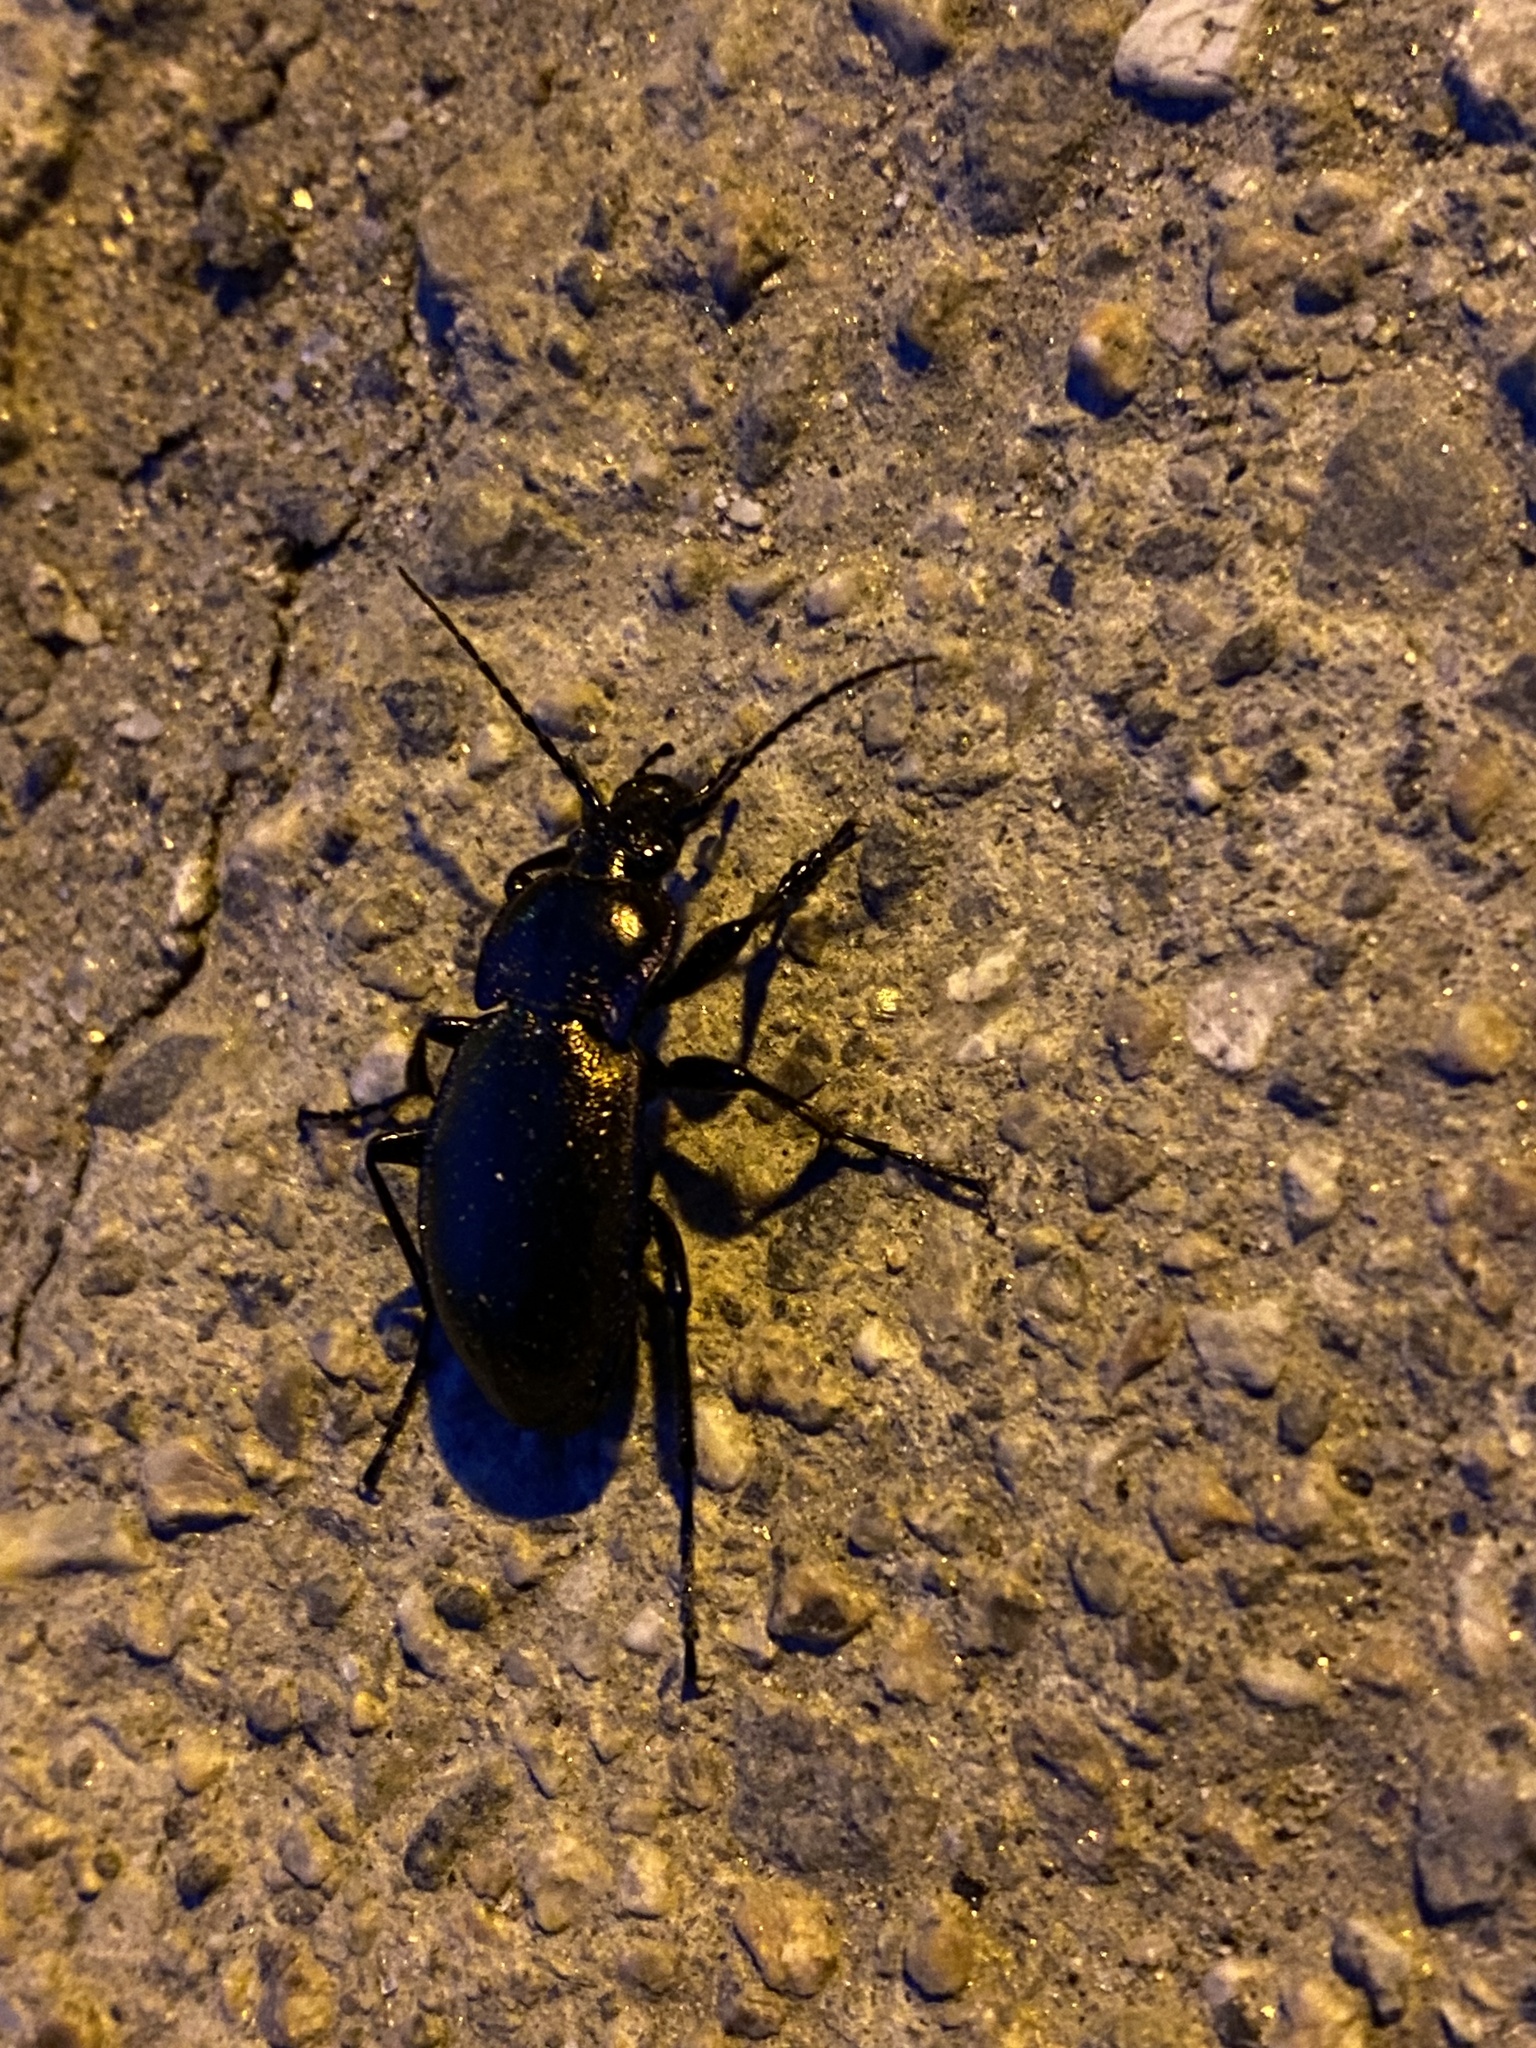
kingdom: Animalia
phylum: Arthropoda
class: Insecta
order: Coleoptera
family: Carabidae
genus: Carabus
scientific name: Carabus nemoralis
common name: European ground beetle
